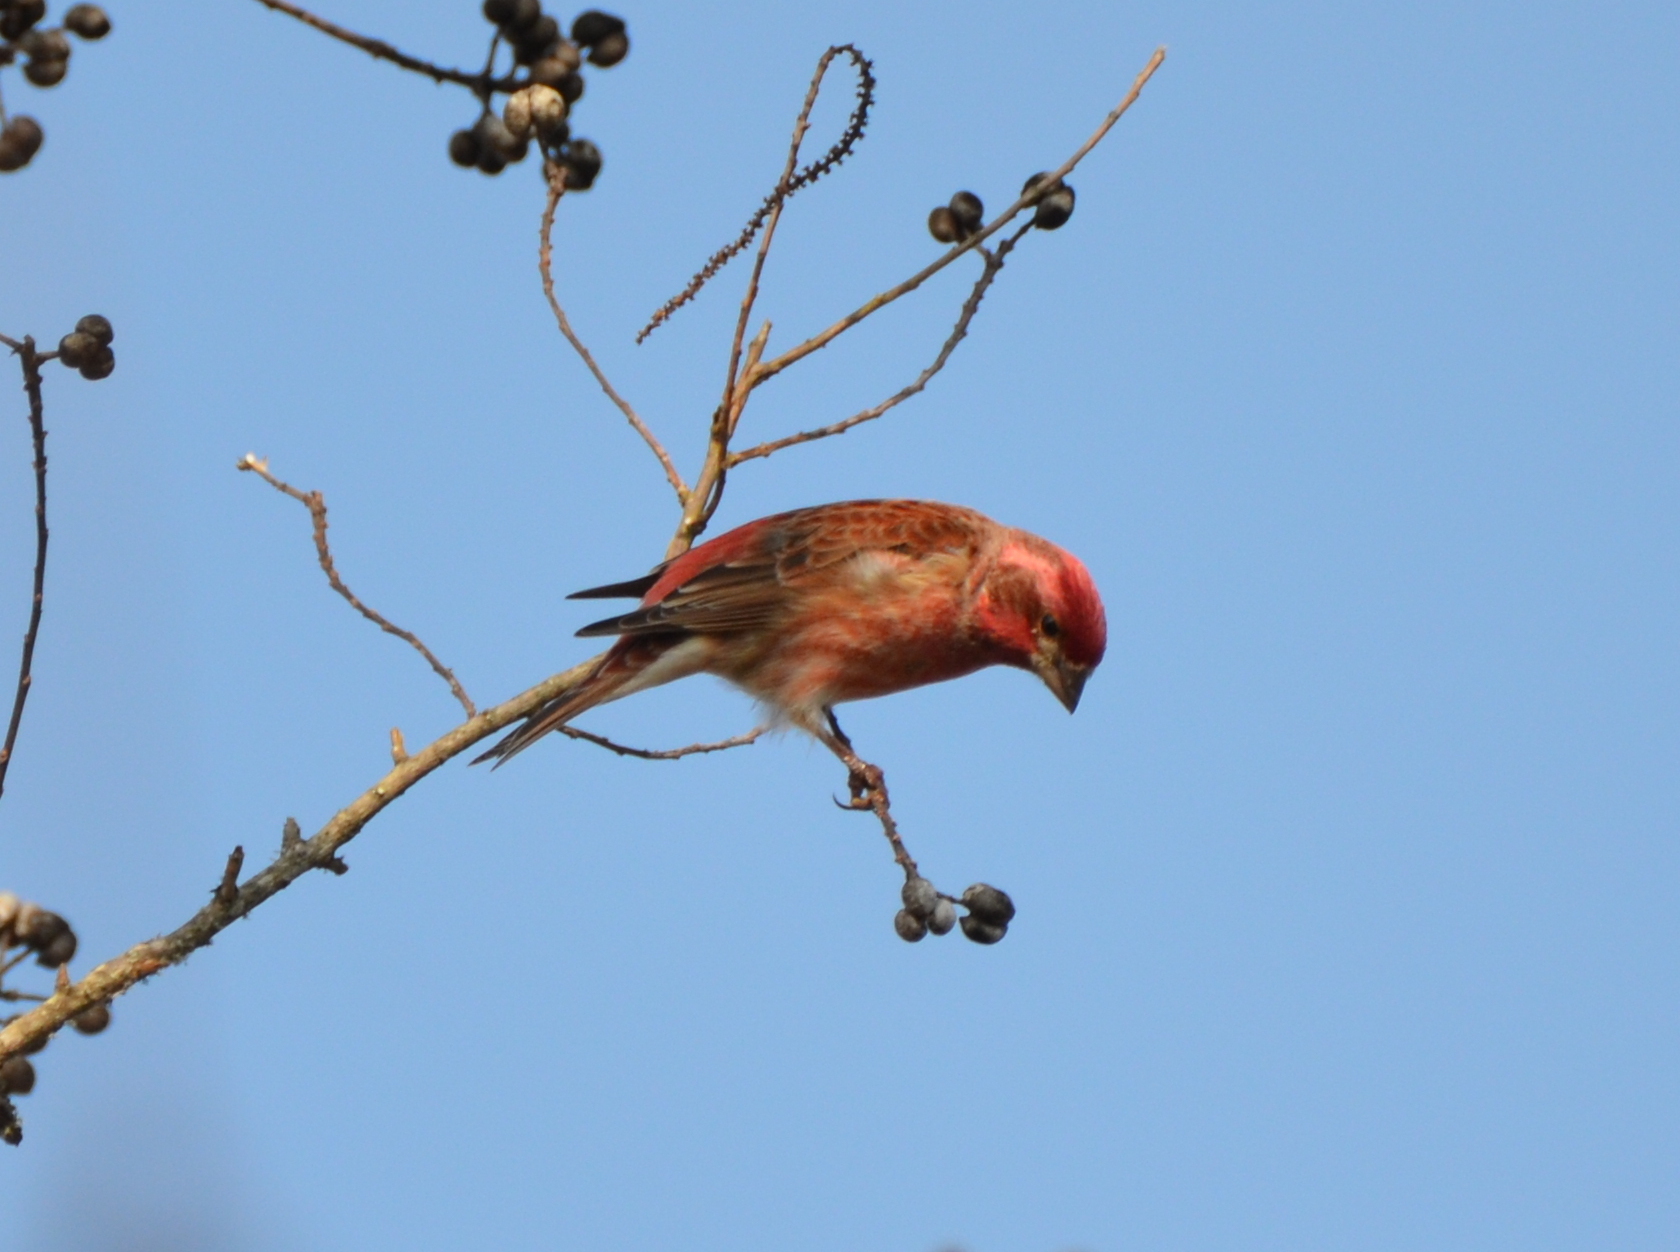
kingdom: Animalia
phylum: Chordata
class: Aves
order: Passeriformes
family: Fringillidae
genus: Haemorhous
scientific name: Haemorhous purpureus
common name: Purple finch
